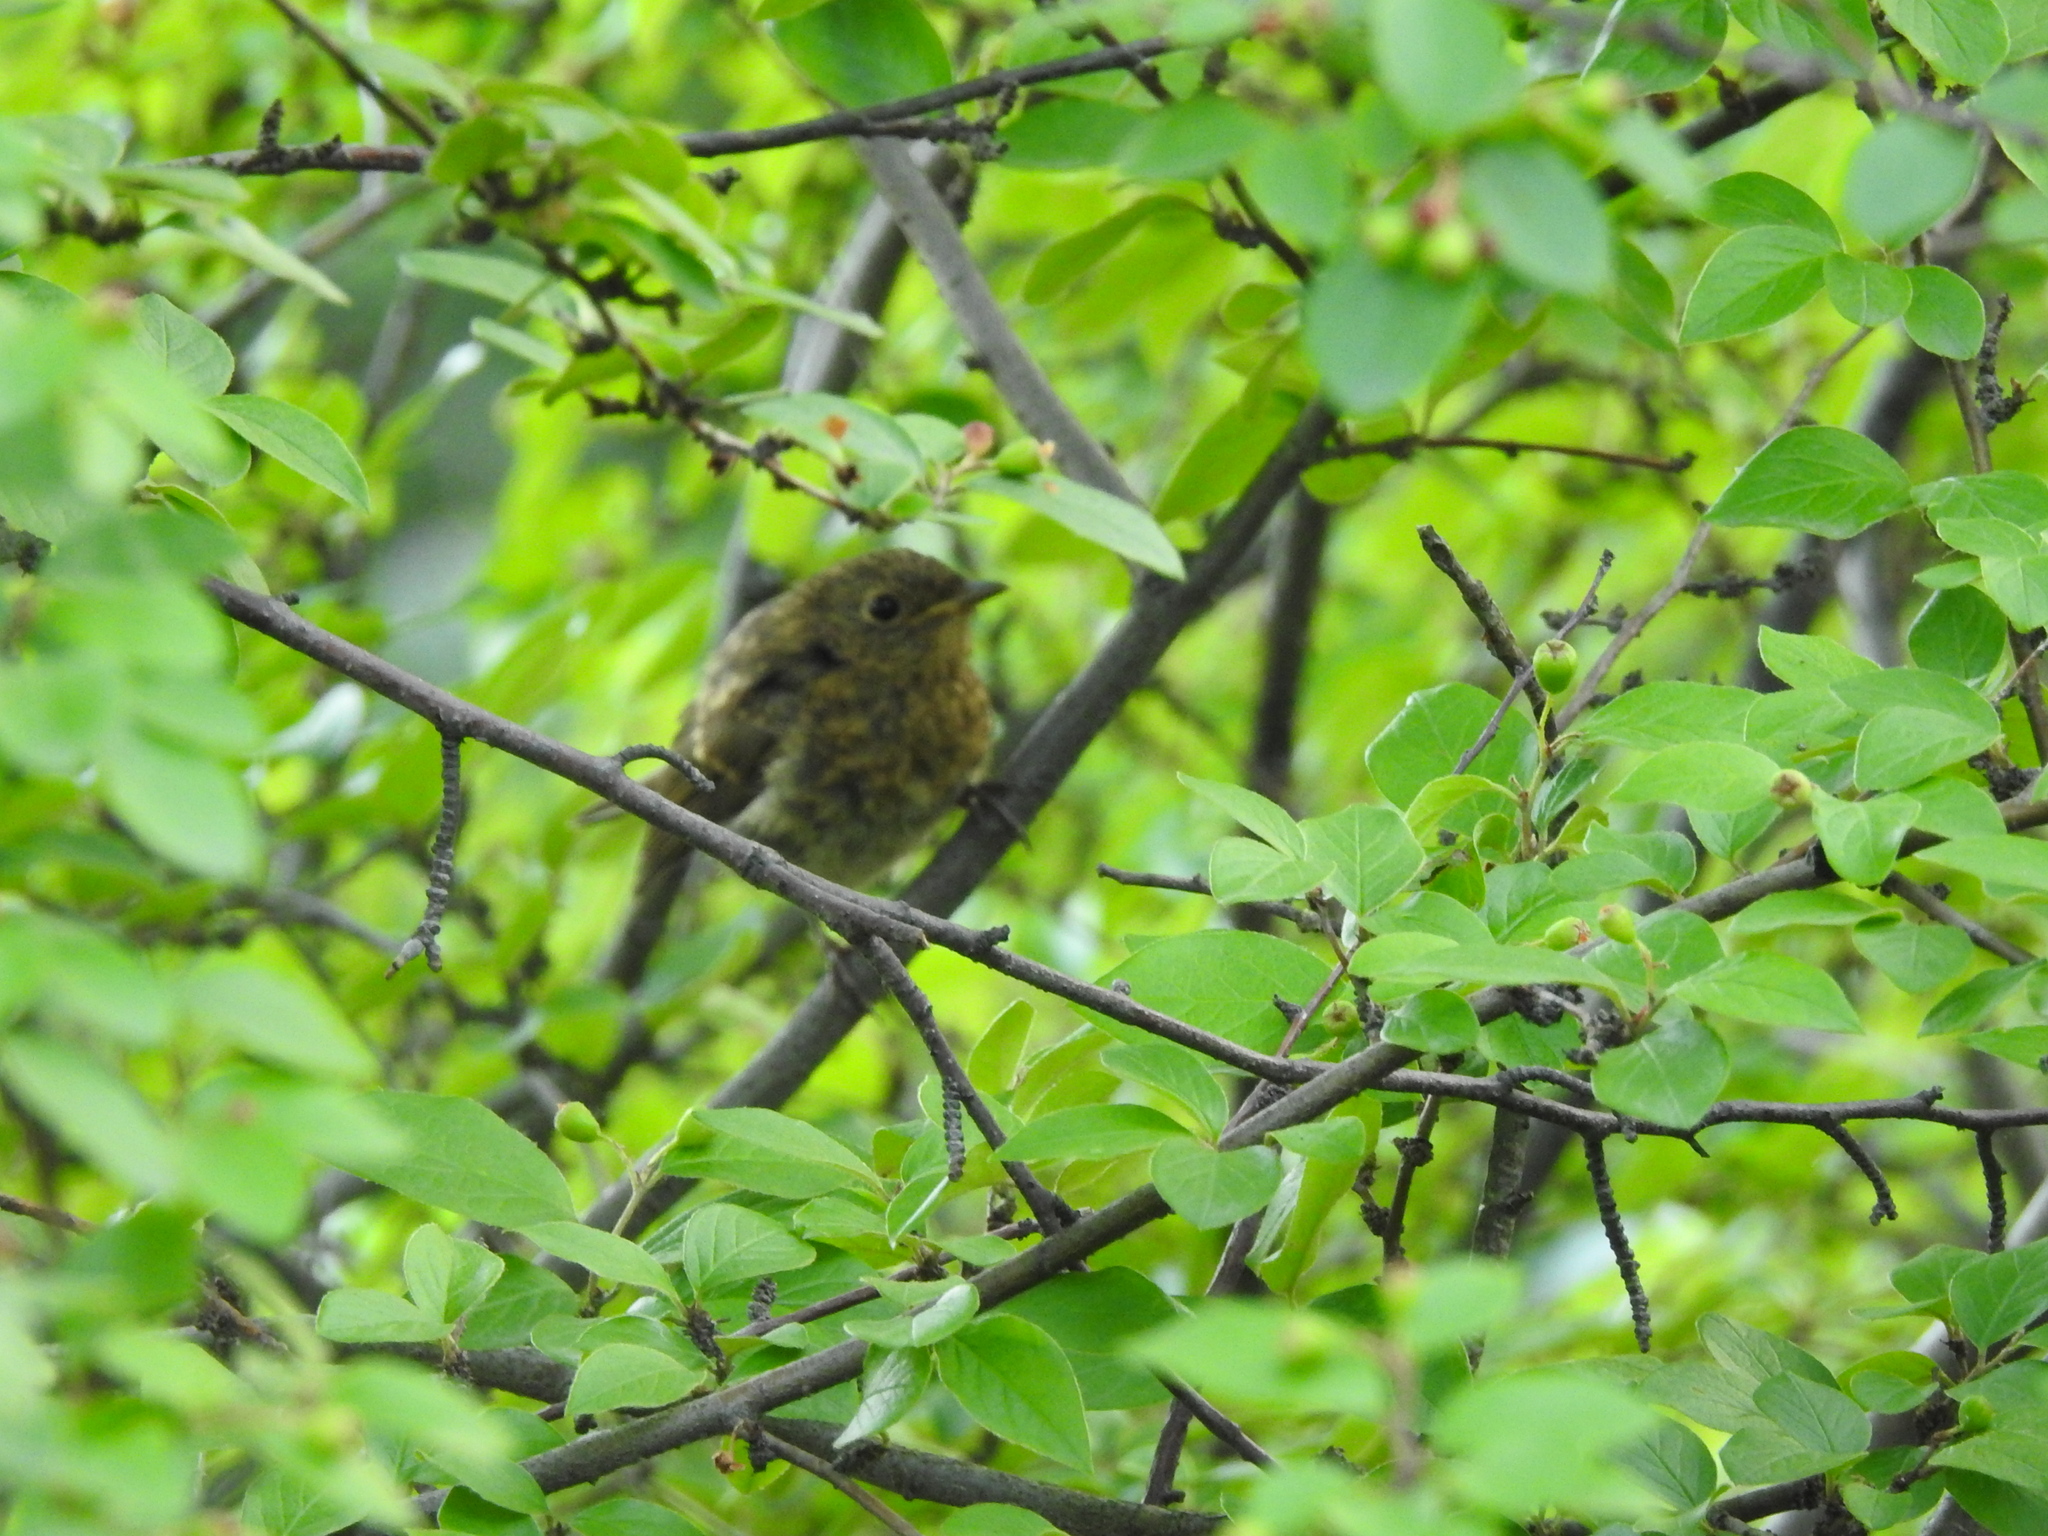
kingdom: Animalia
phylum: Chordata
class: Aves
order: Passeriformes
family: Muscicapidae
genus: Erithacus
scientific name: Erithacus rubecula
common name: European robin
